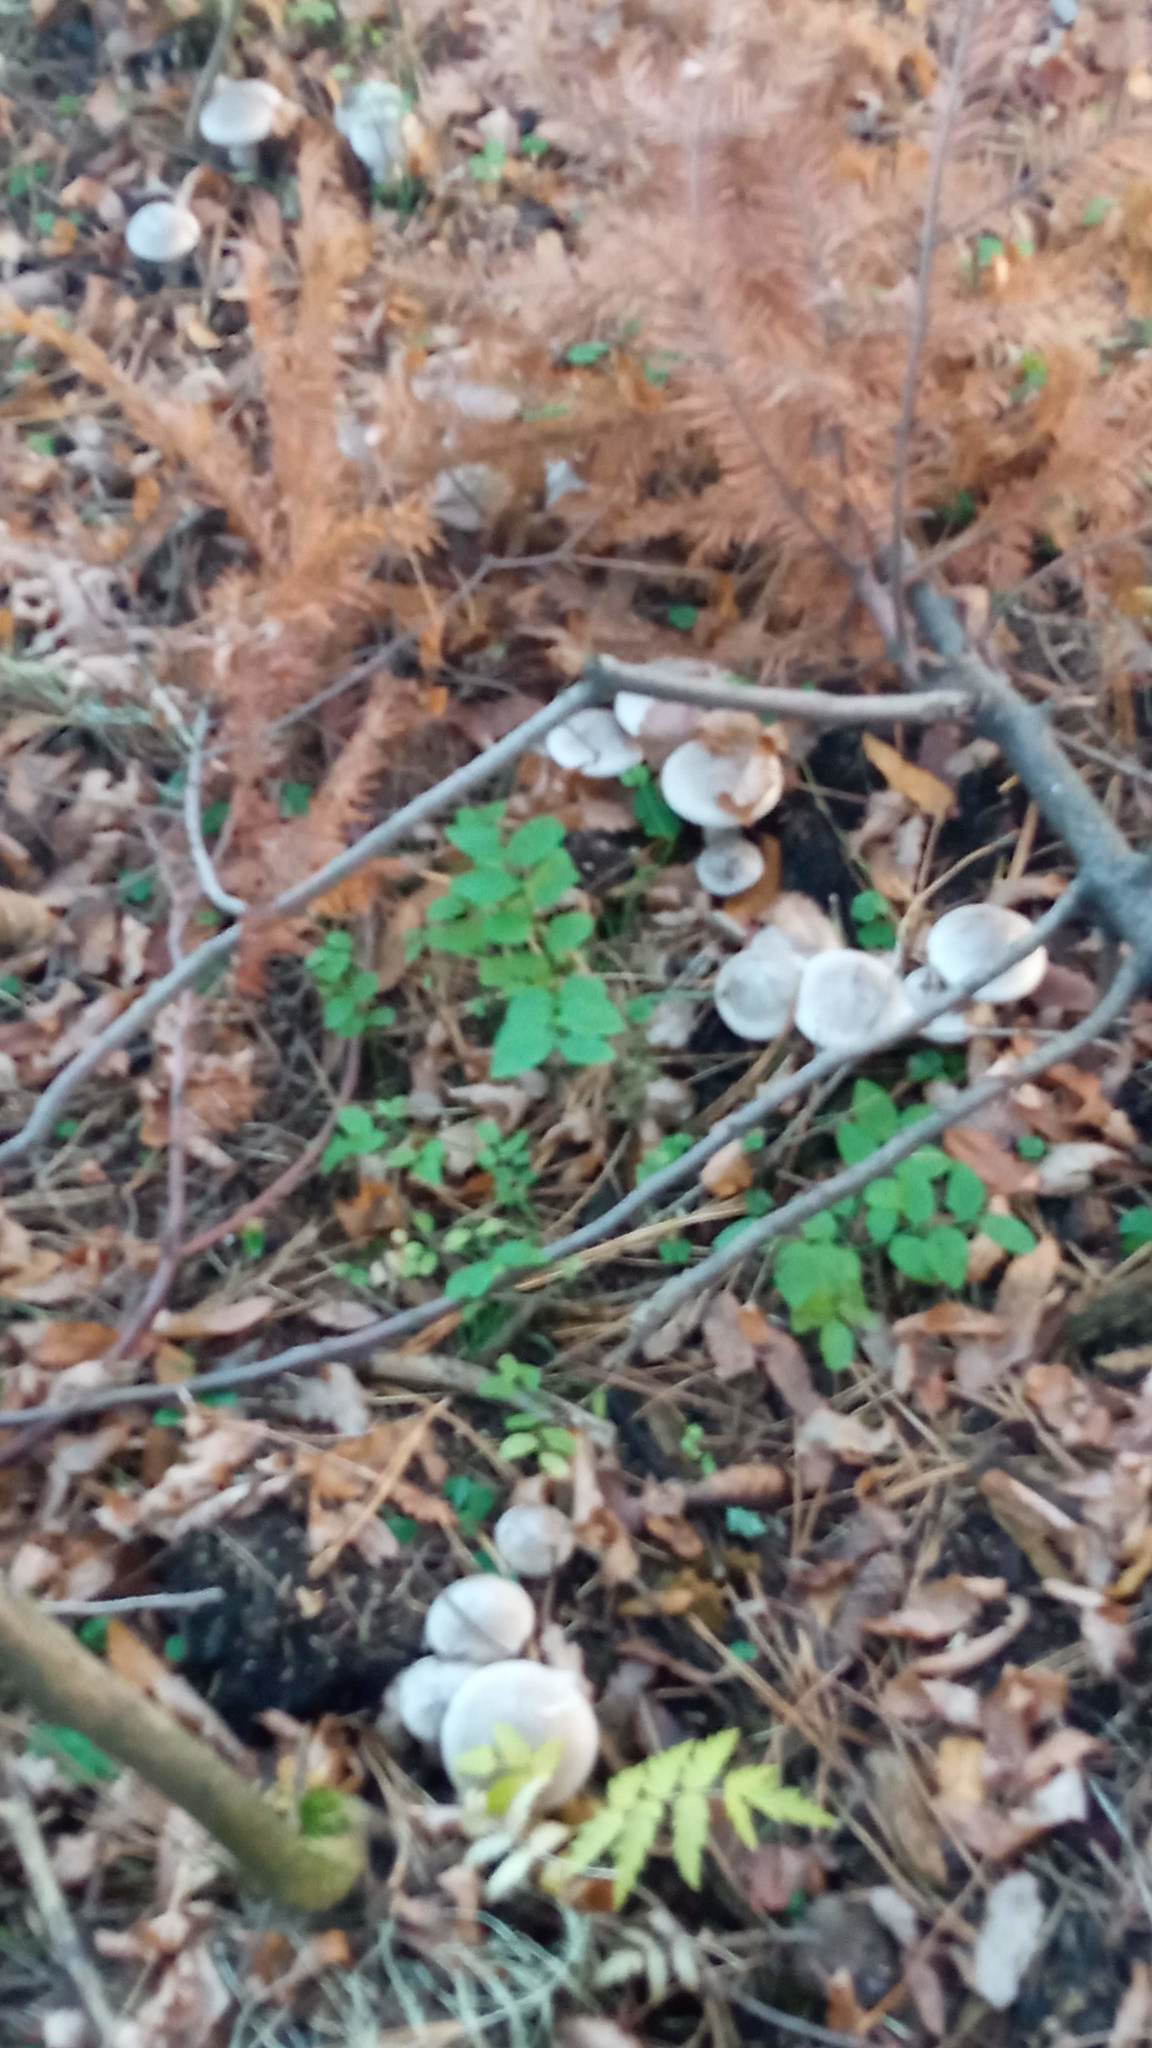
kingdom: Fungi
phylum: Basidiomycota
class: Agaricomycetes
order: Agaricales
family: Tricholomataceae
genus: Clitocybe
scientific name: Clitocybe nebularis
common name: Clouded agaric
